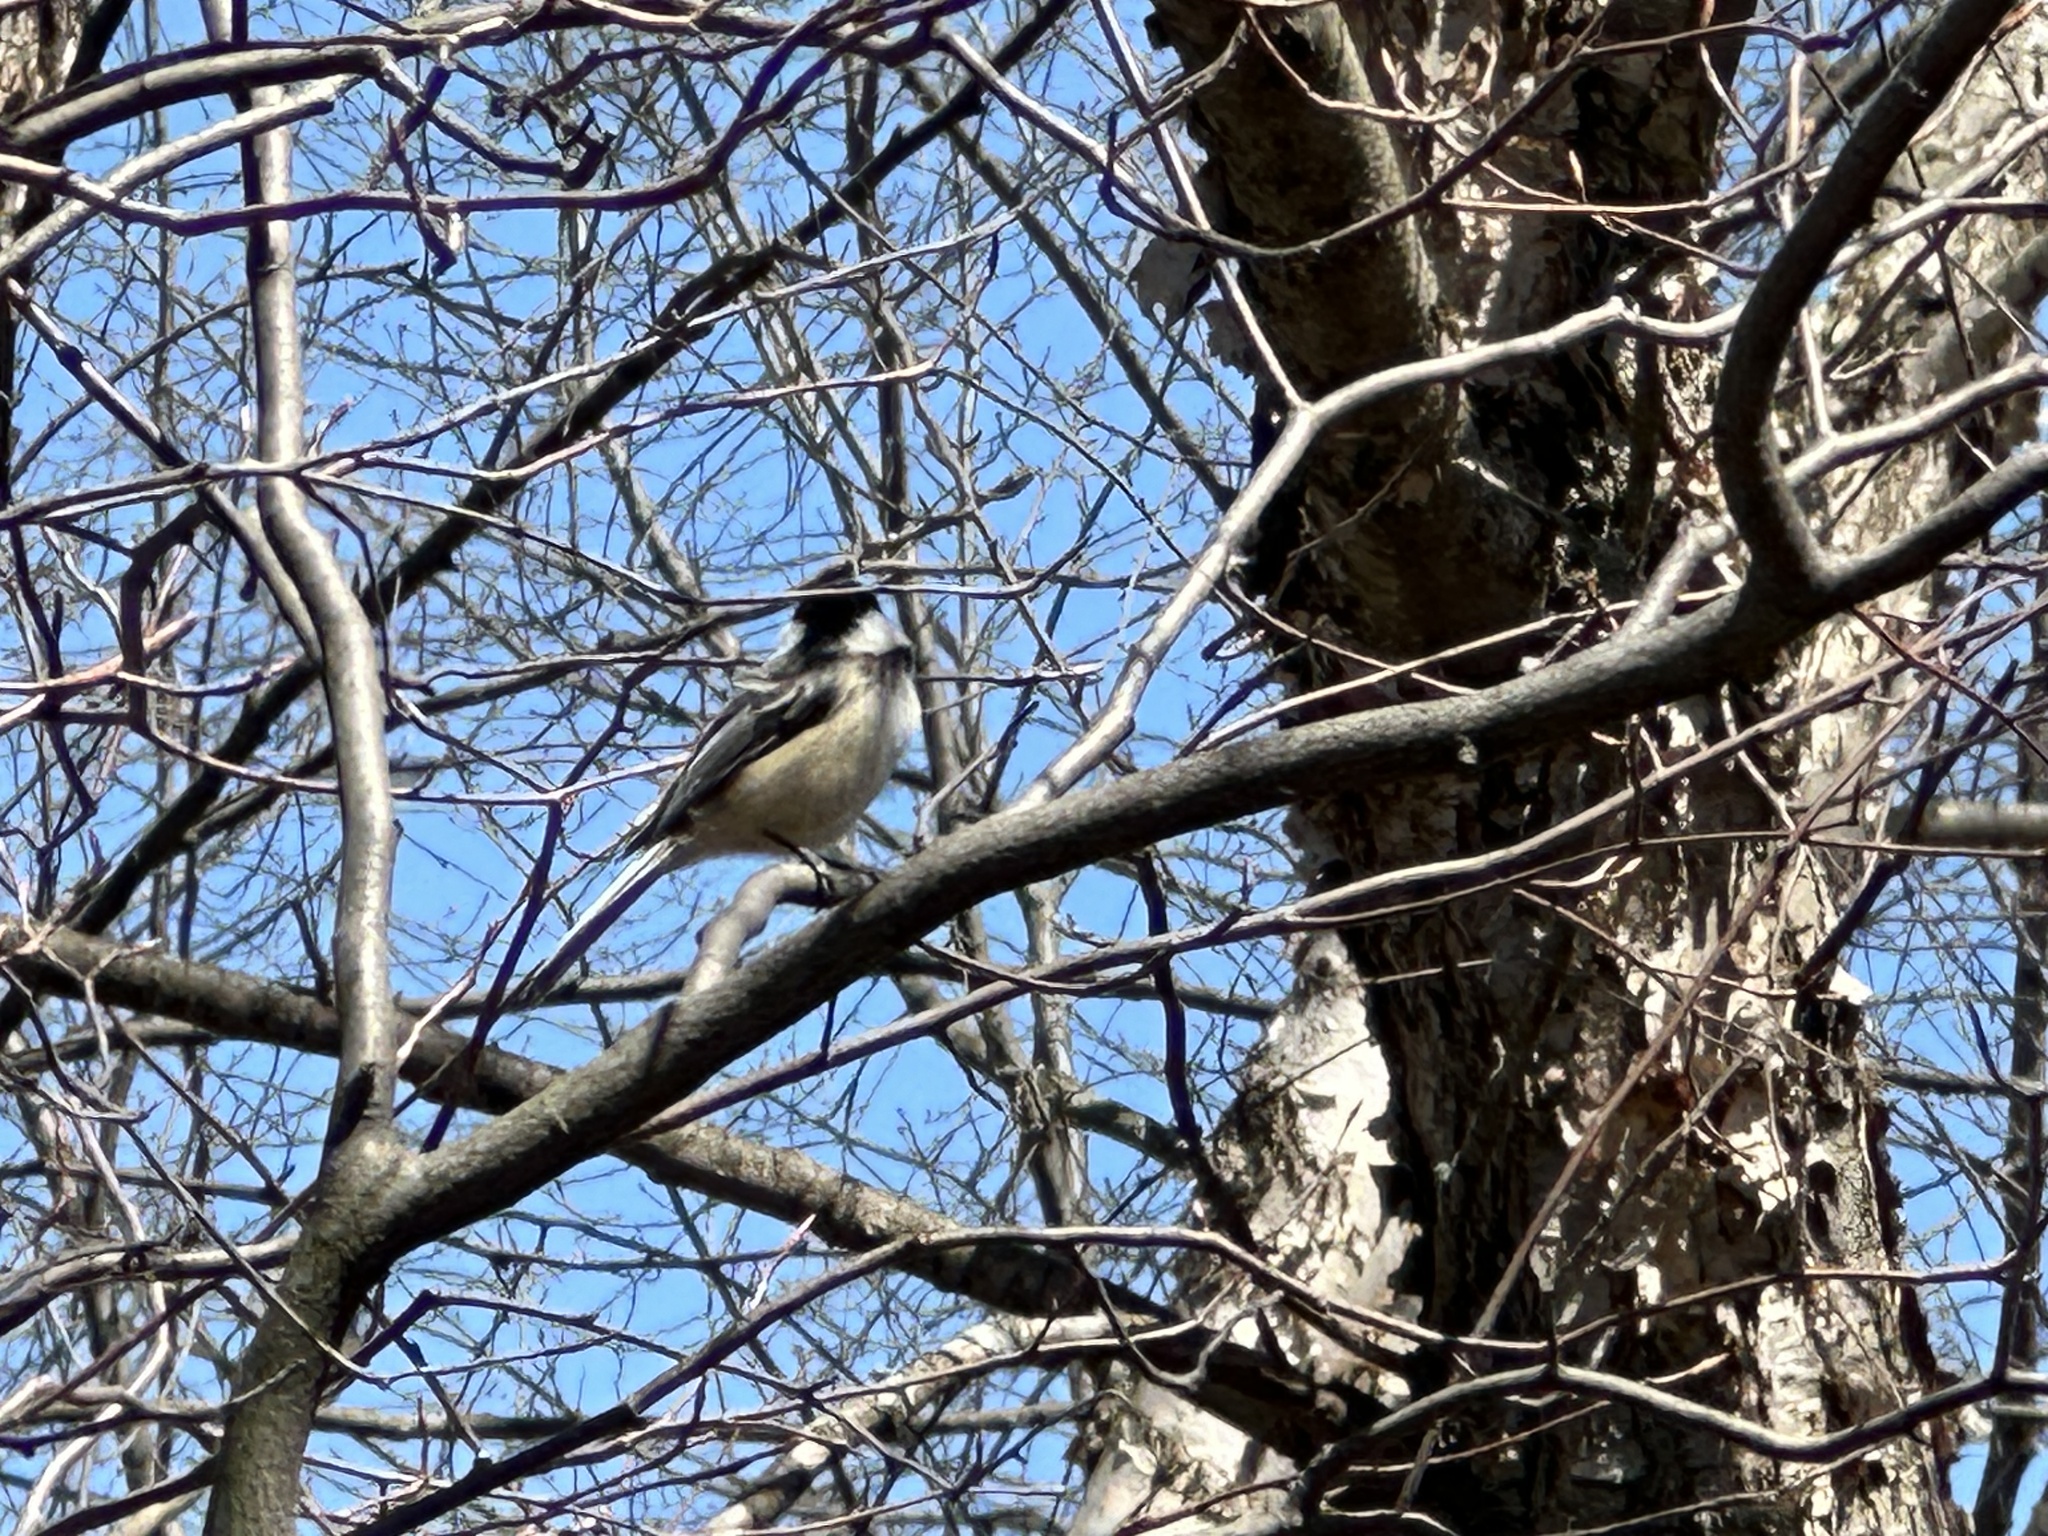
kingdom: Animalia
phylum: Chordata
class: Aves
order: Passeriformes
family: Paridae
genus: Poecile
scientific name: Poecile atricapillus
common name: Black-capped chickadee
